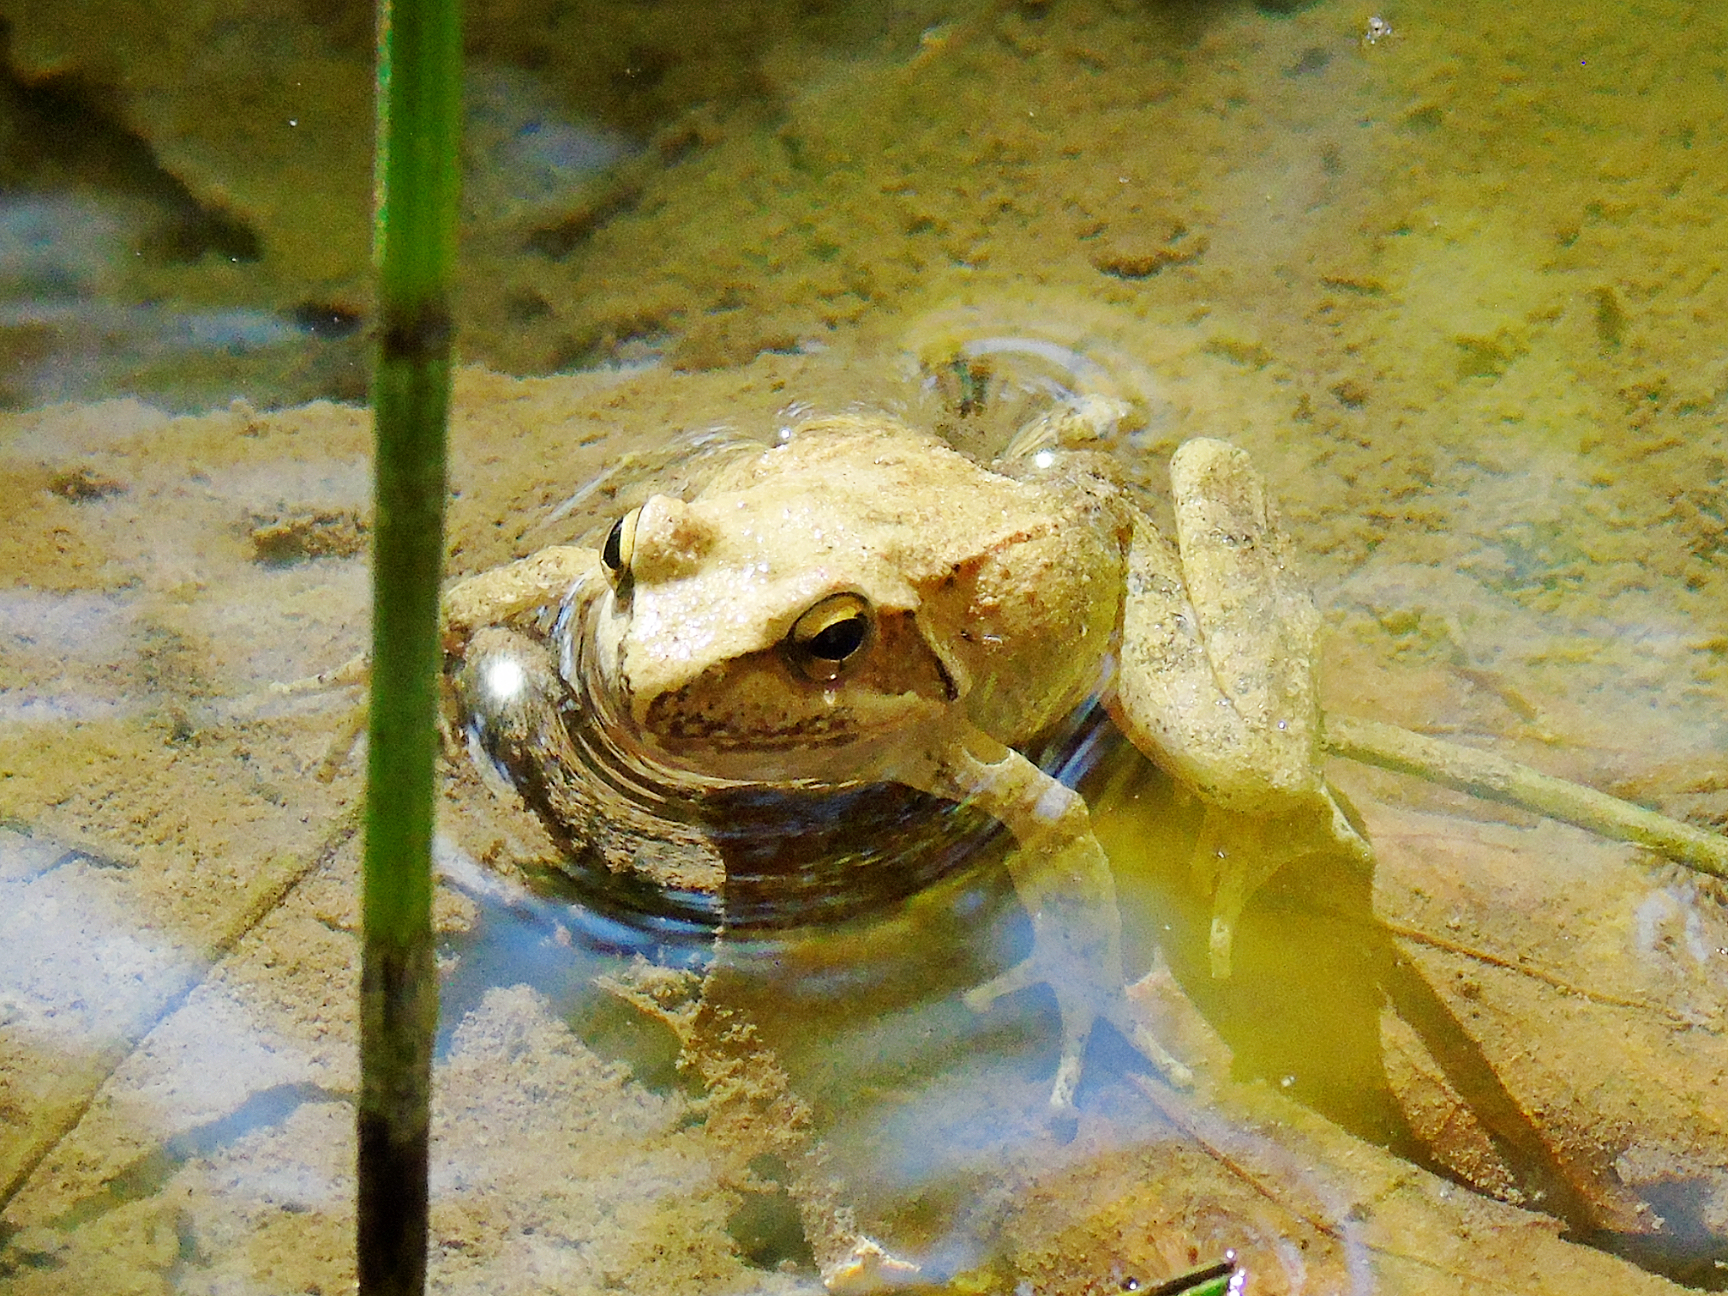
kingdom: Animalia
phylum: Chordata
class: Amphibia
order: Anura
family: Ranidae
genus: Rana
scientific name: Rana graeca
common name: Greek stream frog
